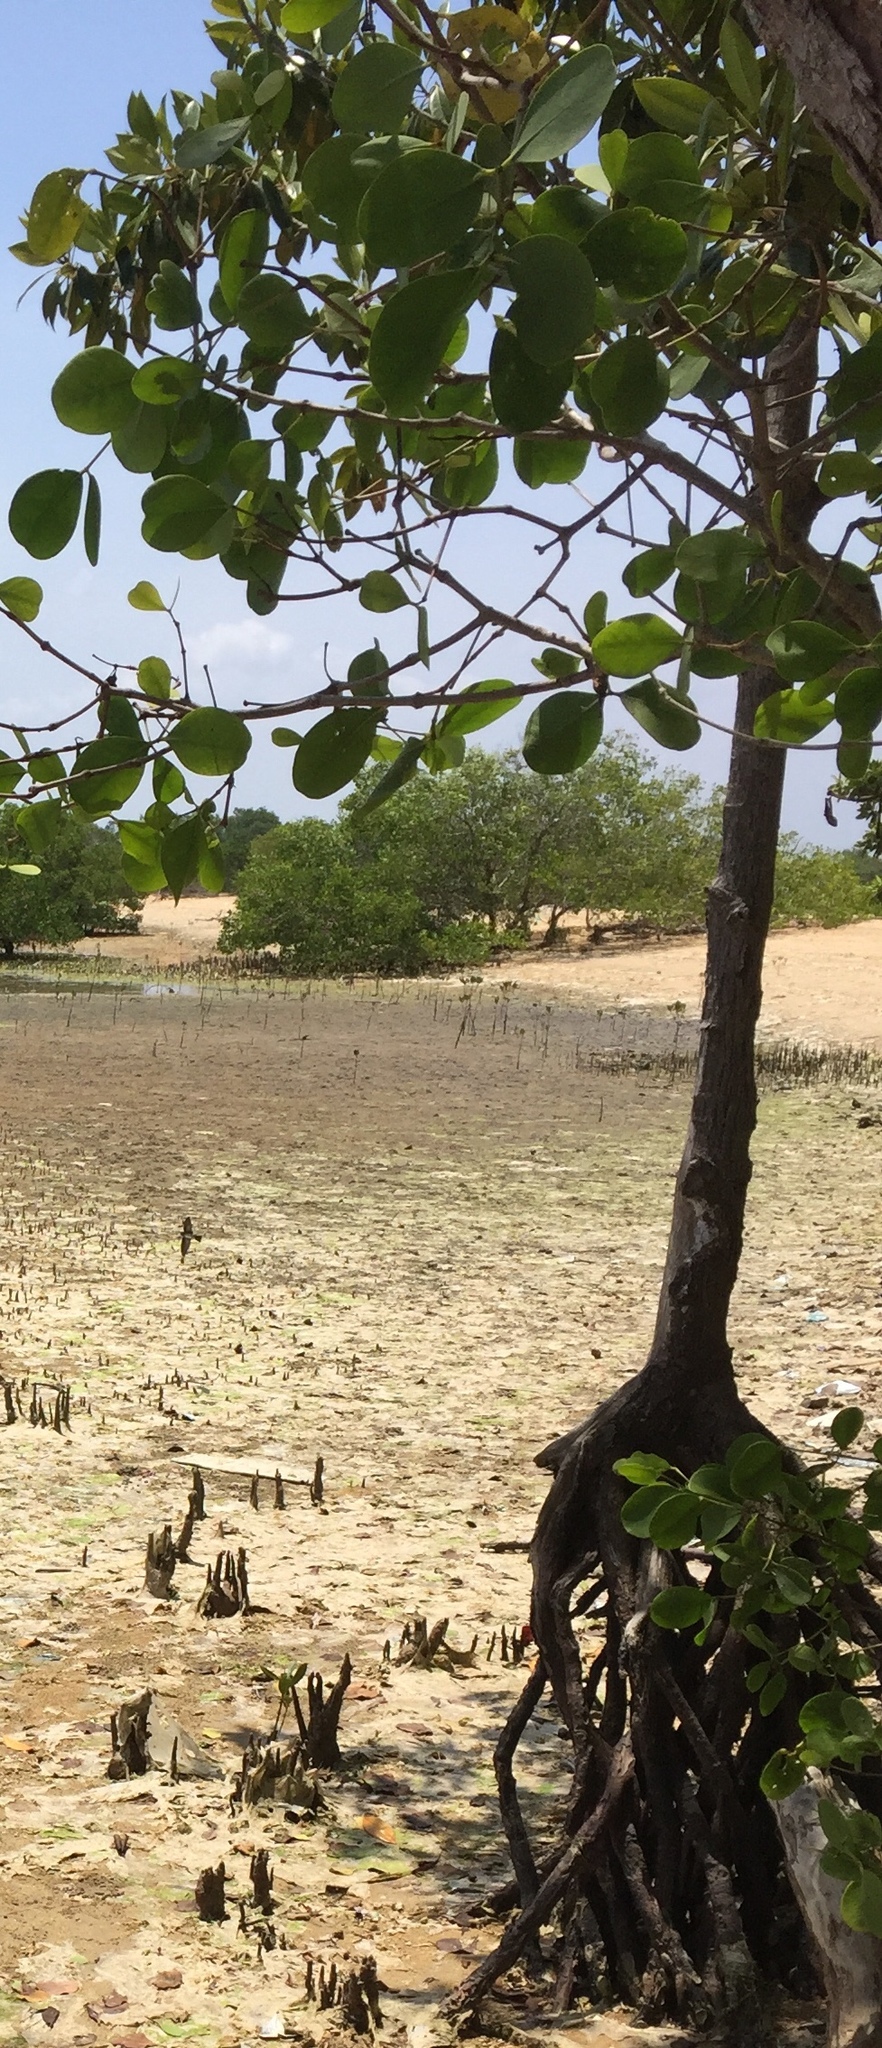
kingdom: Plantae
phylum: Tracheophyta
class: Magnoliopsida
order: Lamiales
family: Acanthaceae
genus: Avicennia
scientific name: Avicennia marina
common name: Gray mangrove
